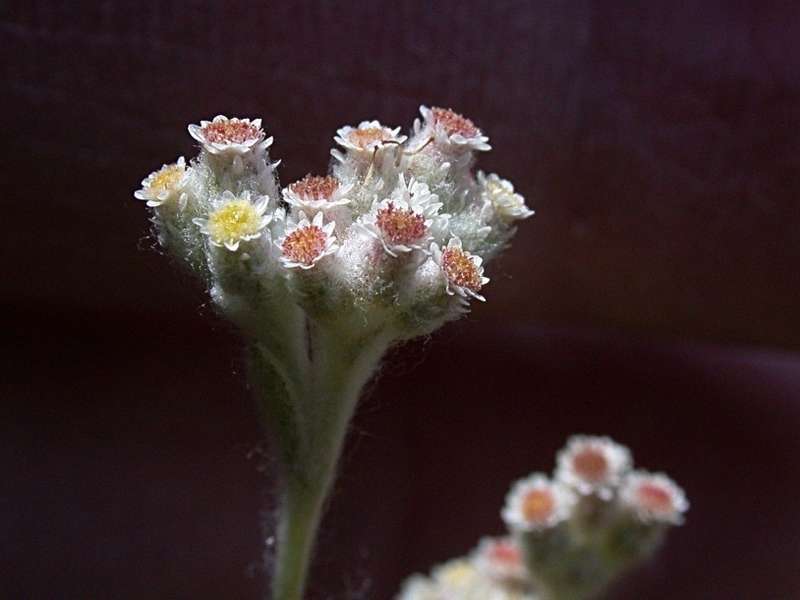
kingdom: Plantae
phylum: Tracheophyta
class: Magnoliopsida
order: Asterales
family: Asteraceae
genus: Vellereophyton
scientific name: Vellereophyton dealbatum
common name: White-cudweed
